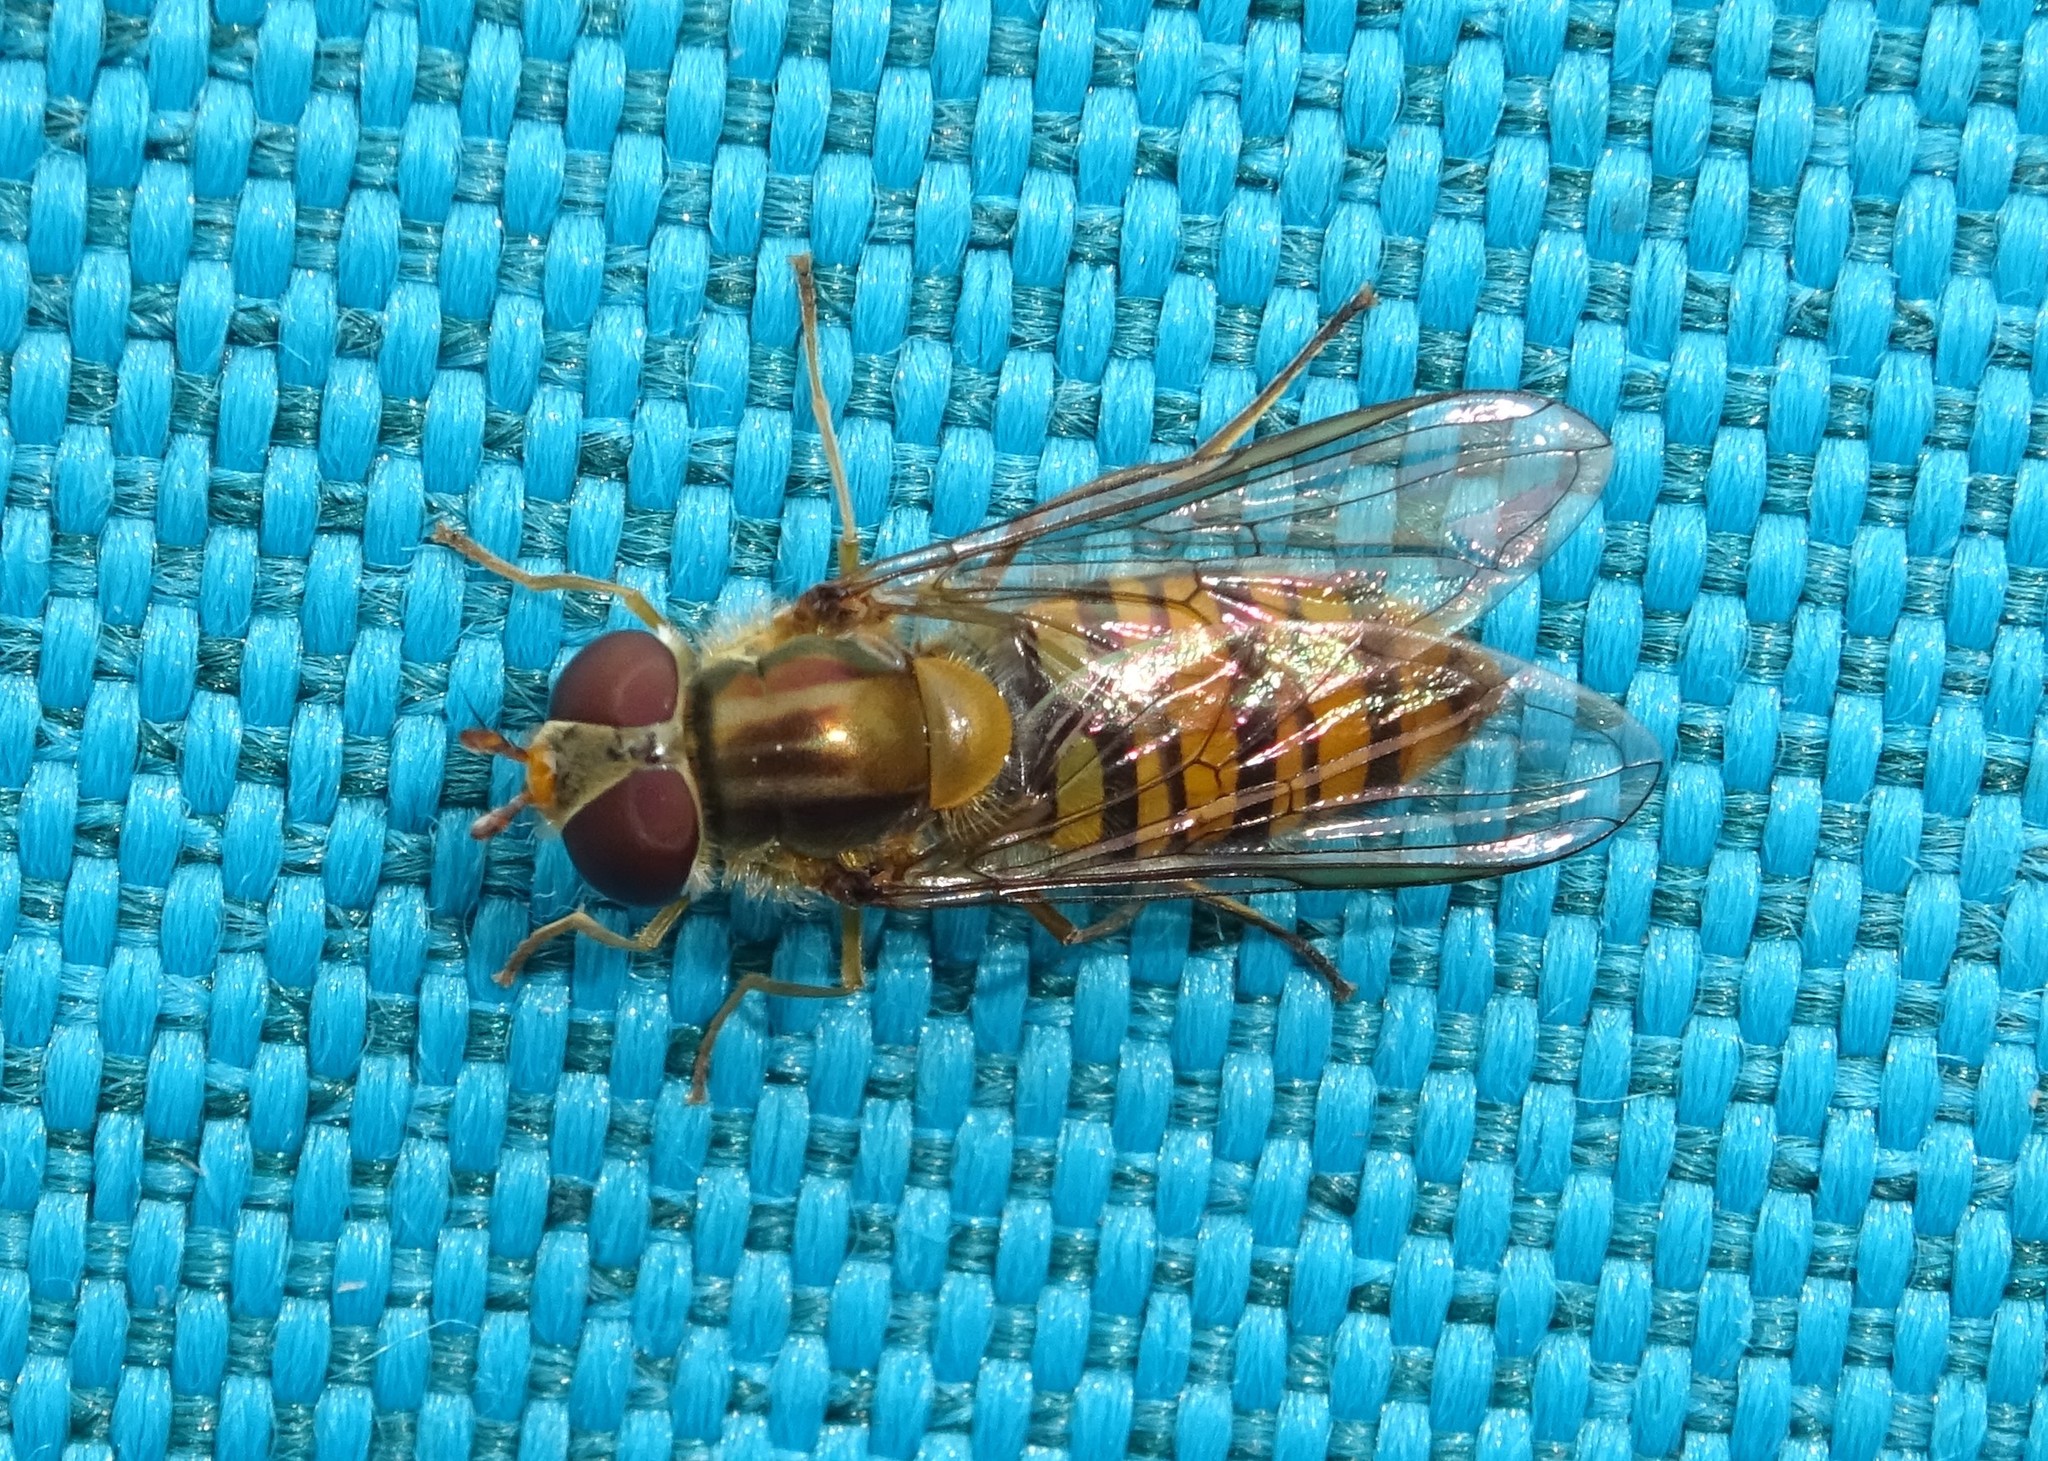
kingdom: Animalia
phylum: Arthropoda
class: Insecta
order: Diptera
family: Syrphidae
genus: Episyrphus
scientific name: Episyrphus balteatus
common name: Marmalade hoverfly
